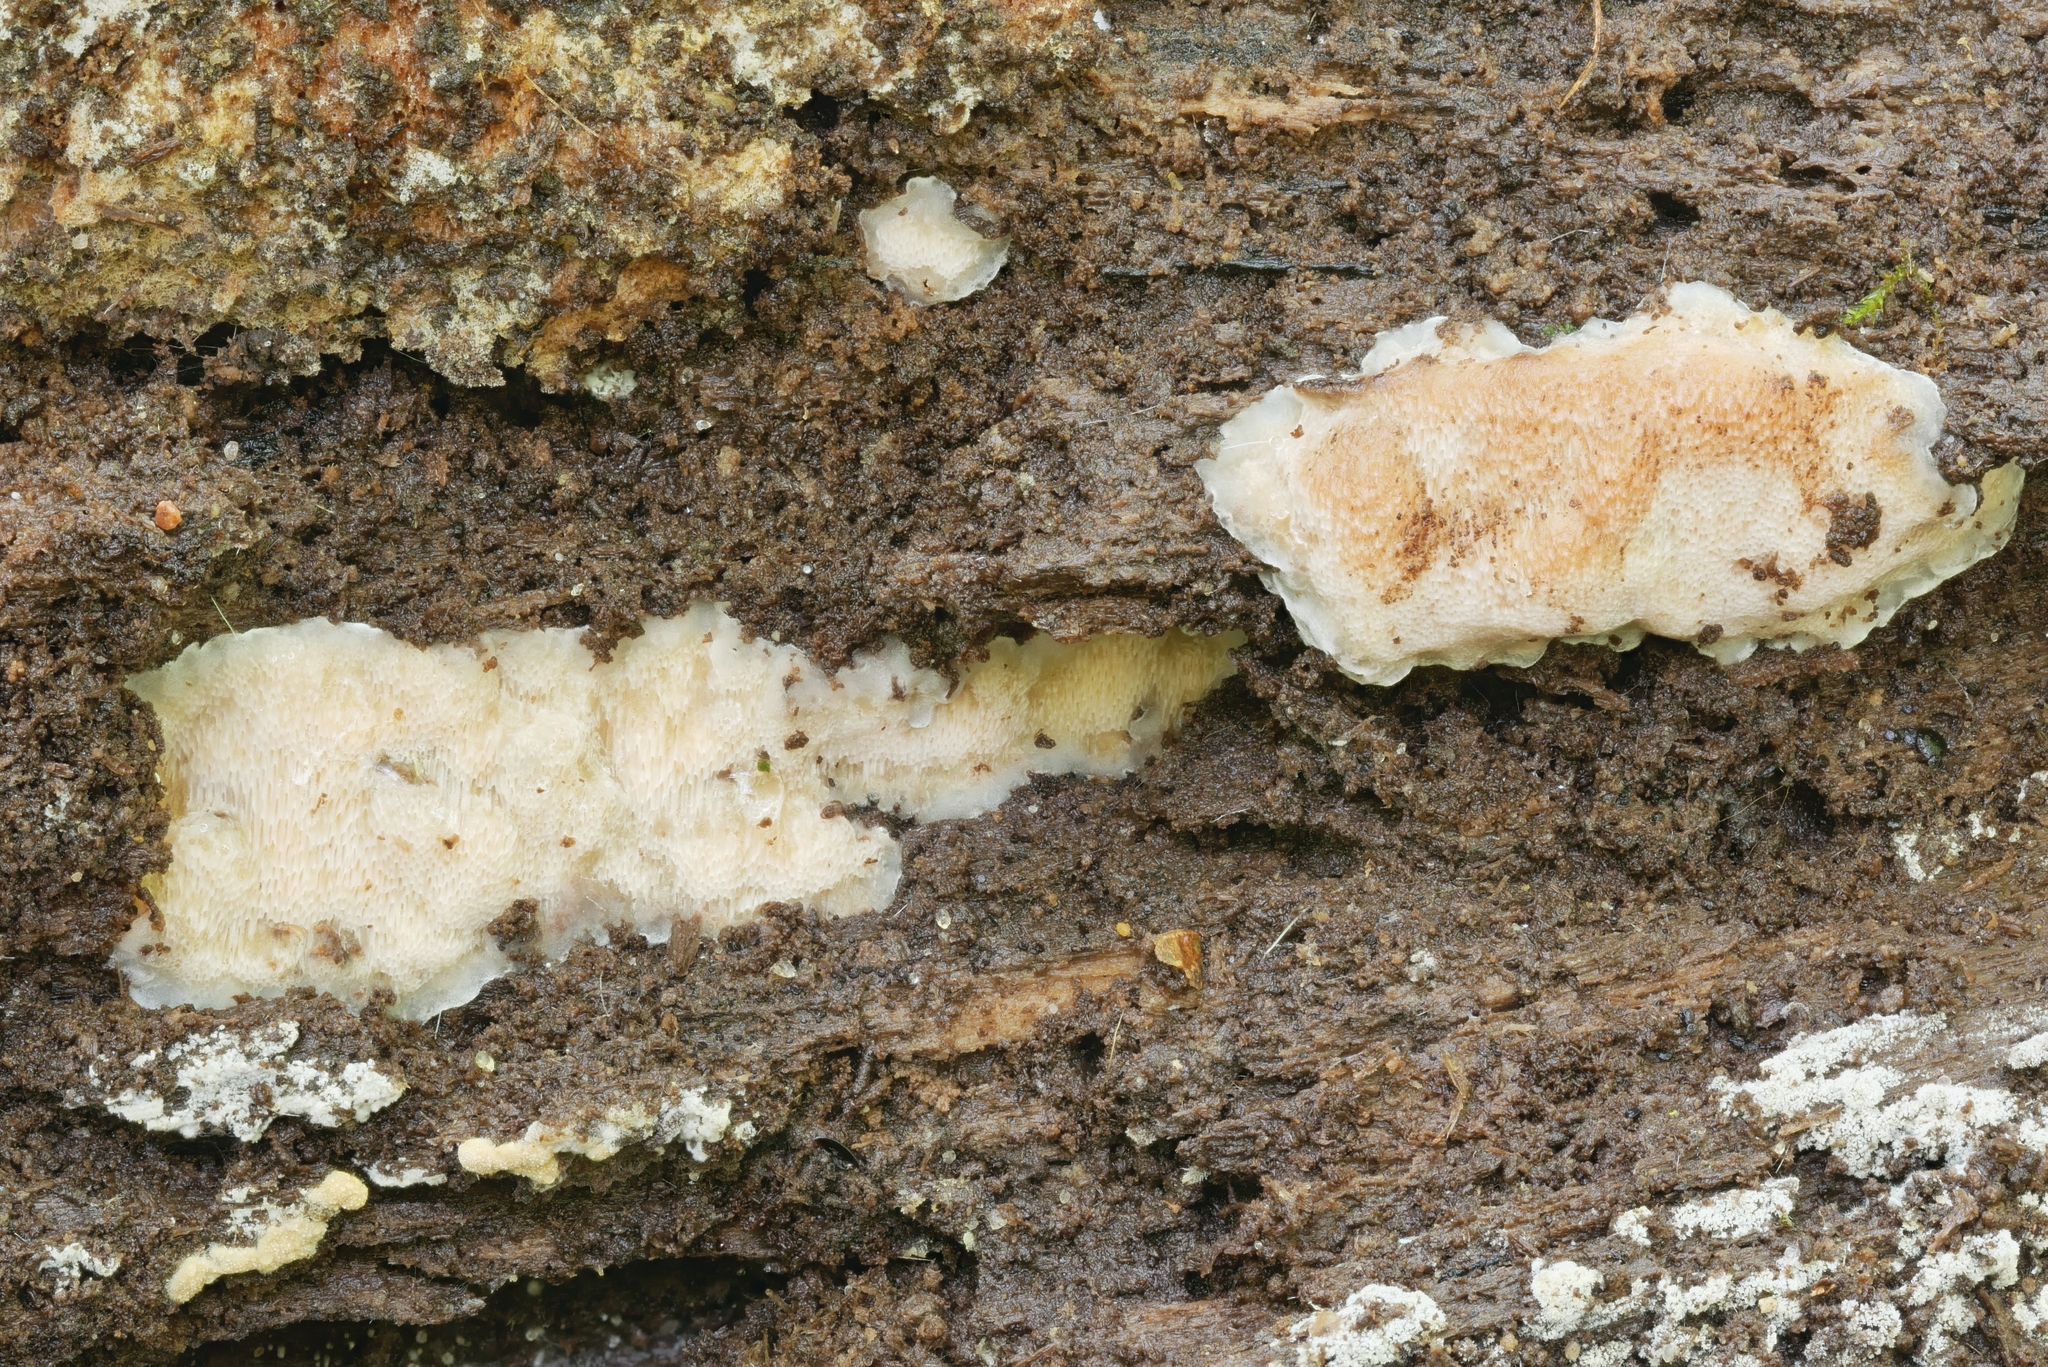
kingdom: Fungi
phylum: Basidiomycota
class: Agaricomycetes
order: Polyporales
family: Meripilaceae
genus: Rigidoporus
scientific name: Rigidoporus pouzarii
